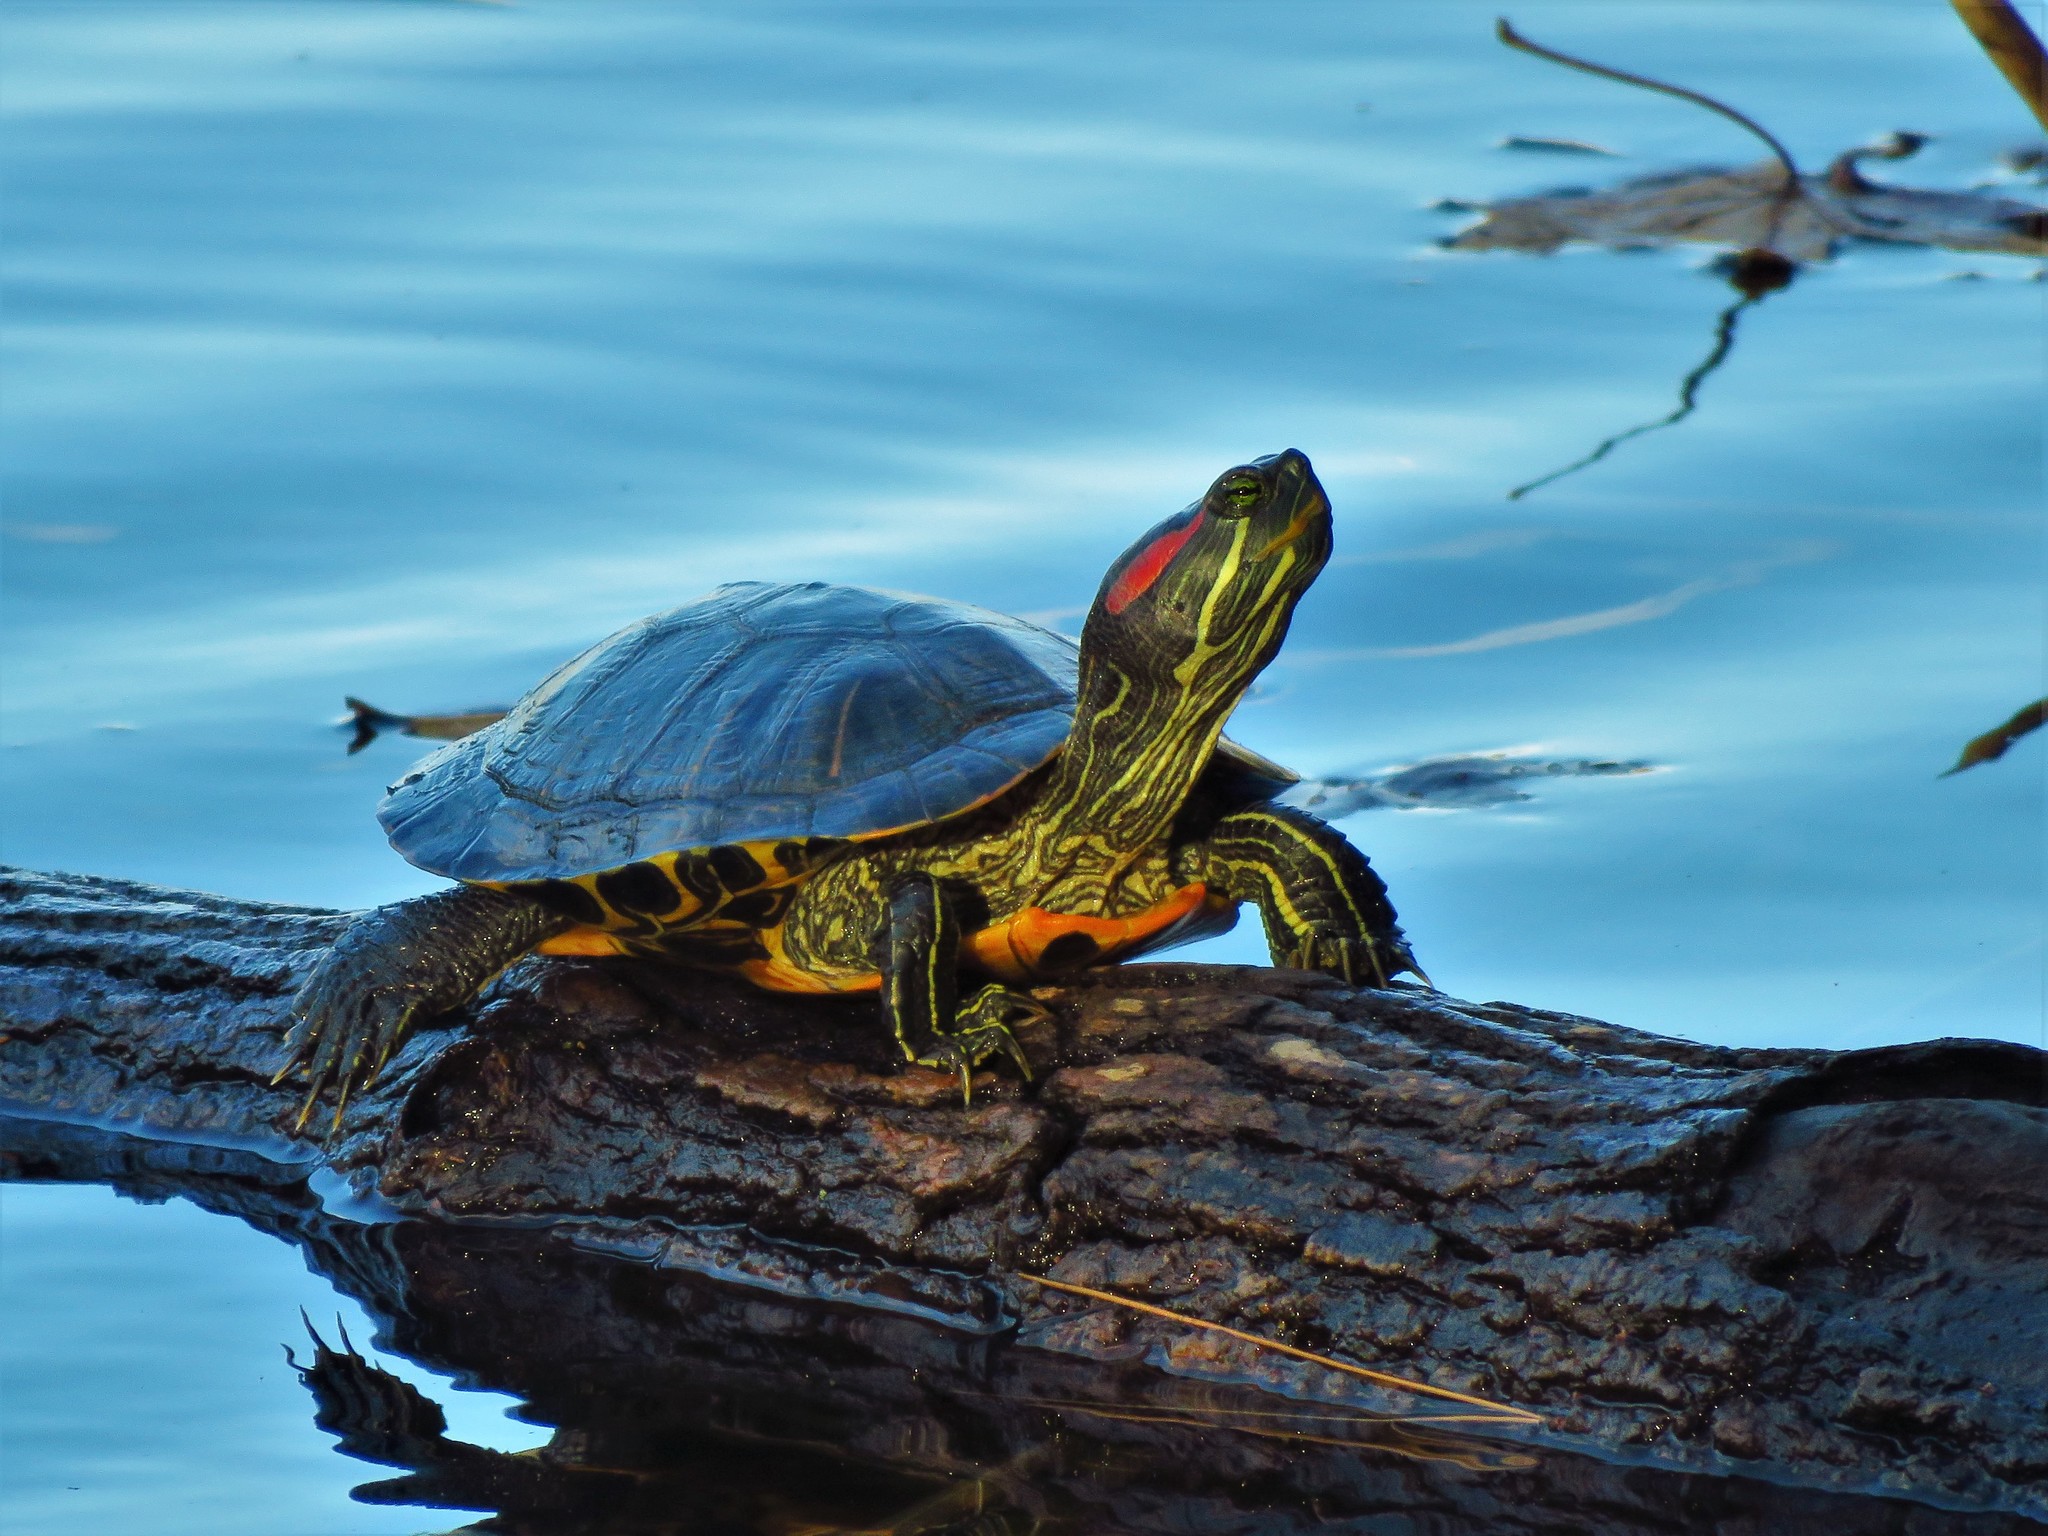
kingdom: Animalia
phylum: Chordata
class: Testudines
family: Emydidae
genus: Trachemys
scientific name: Trachemys scripta
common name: Slider
